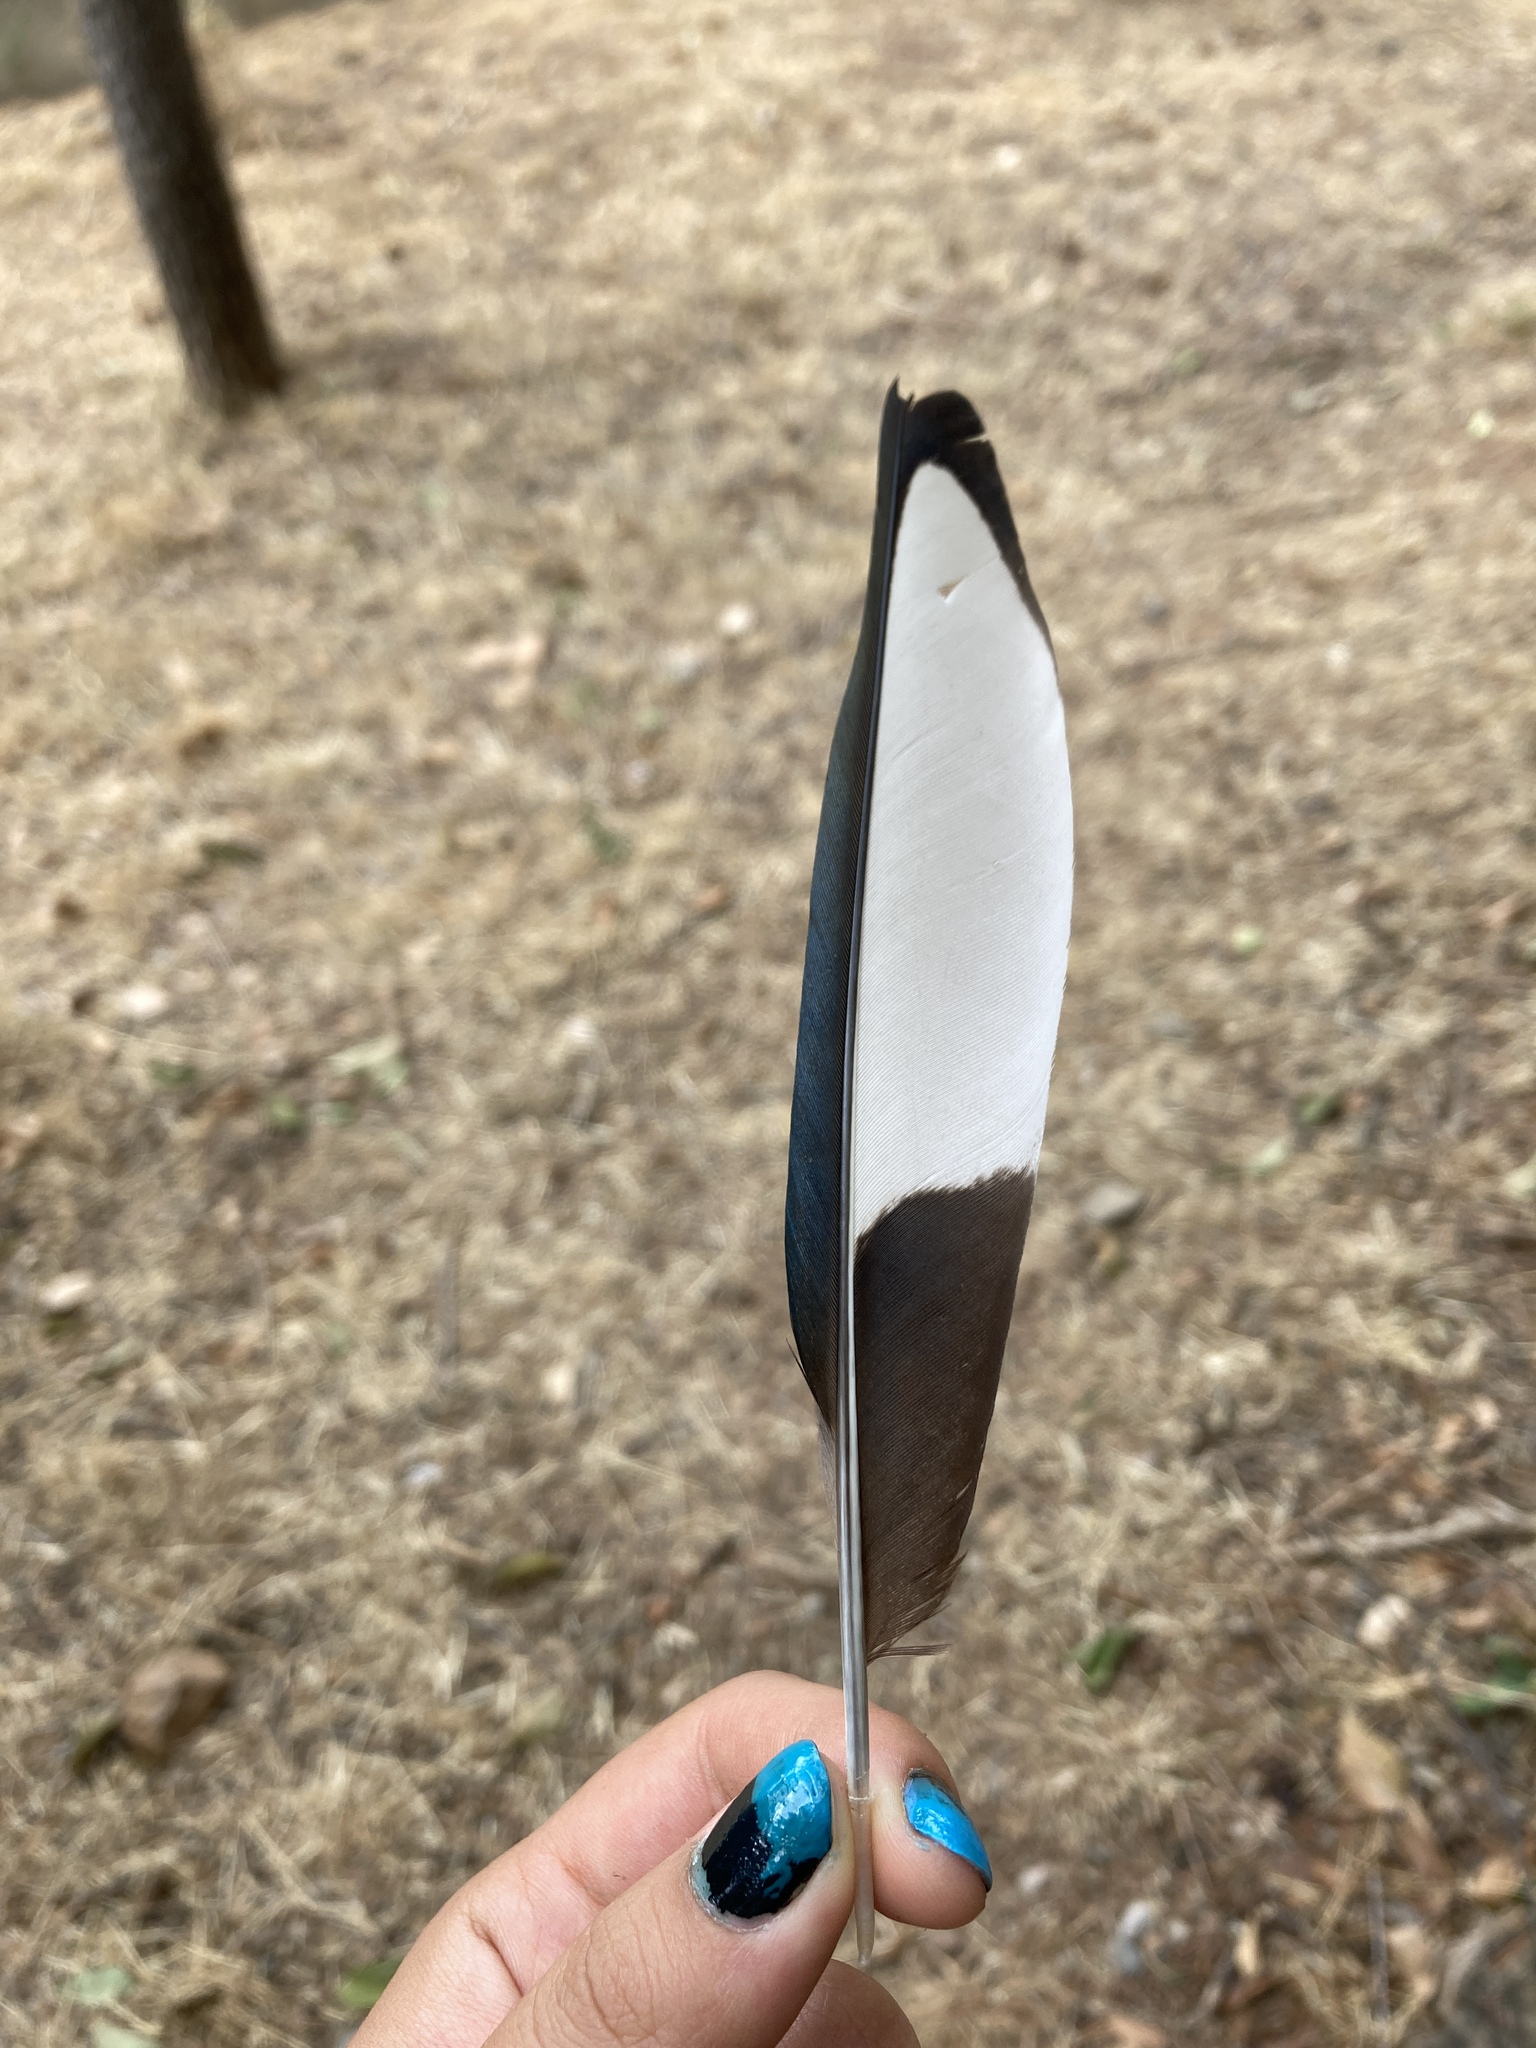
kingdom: Animalia
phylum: Chordata
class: Aves
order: Passeriformes
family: Corvidae
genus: Pica
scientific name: Pica pica
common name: Eurasian magpie
